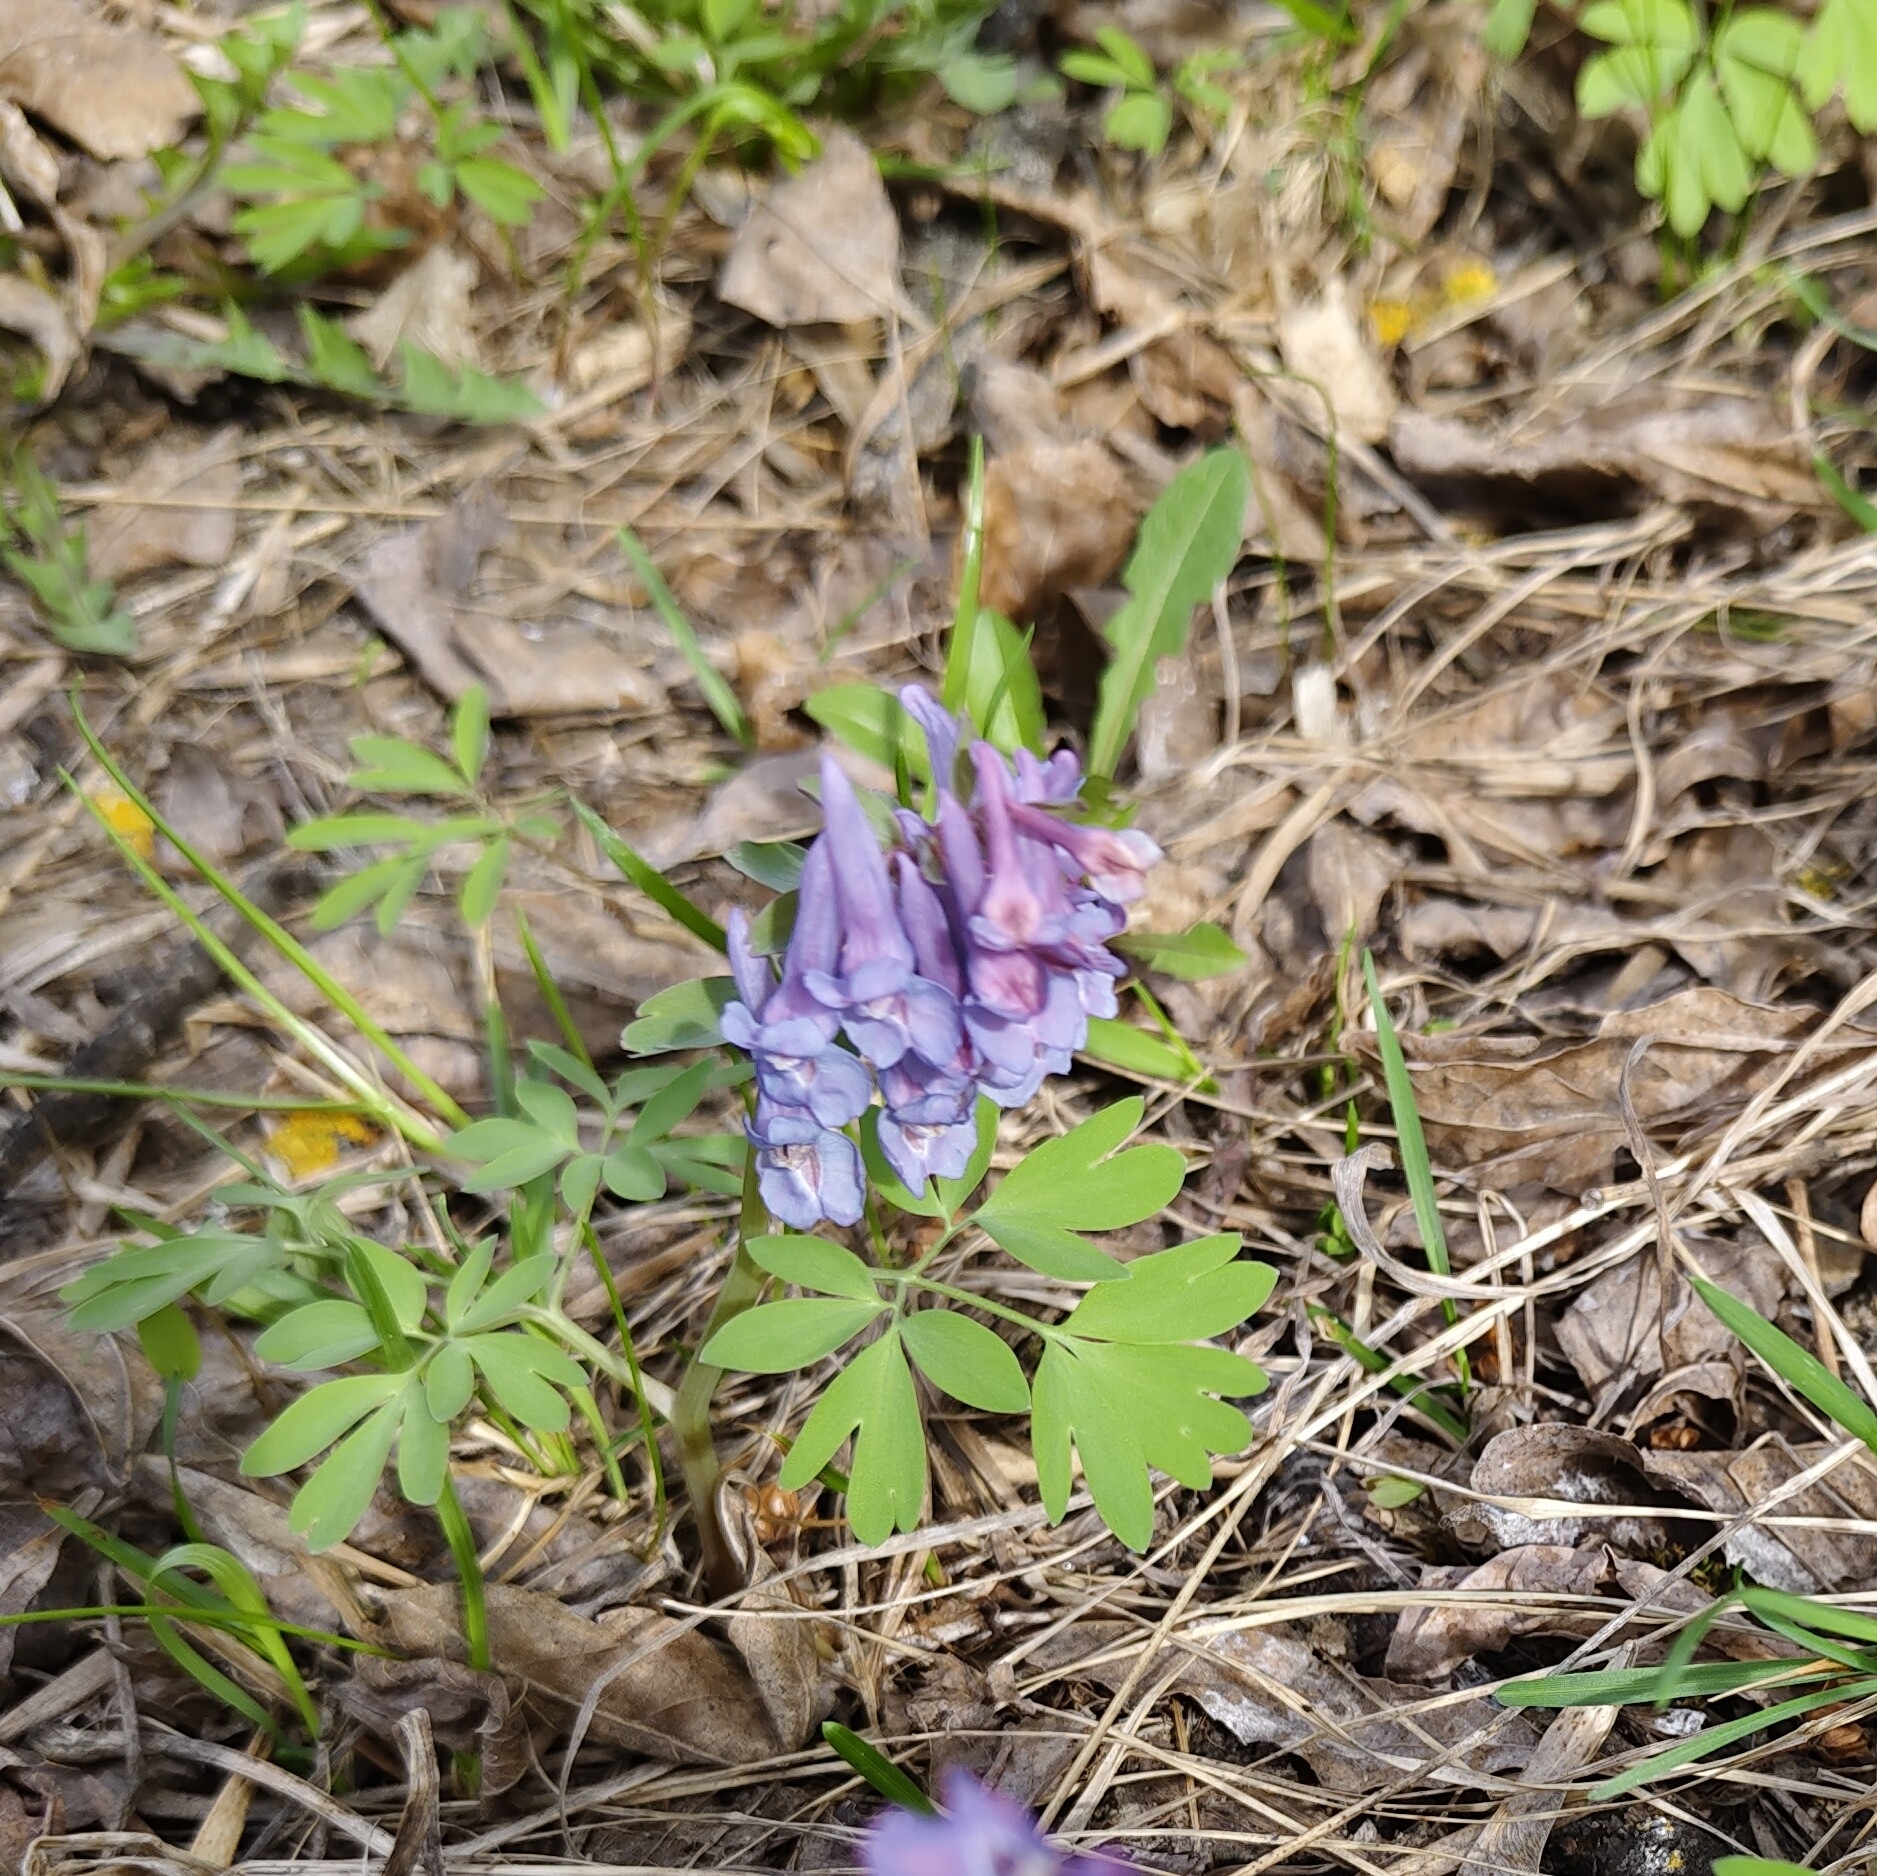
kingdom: Plantae
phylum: Tracheophyta
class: Magnoliopsida
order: Ranunculales
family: Papaveraceae
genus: Corydalis
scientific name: Corydalis solida
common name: Bird-in-a-bush
